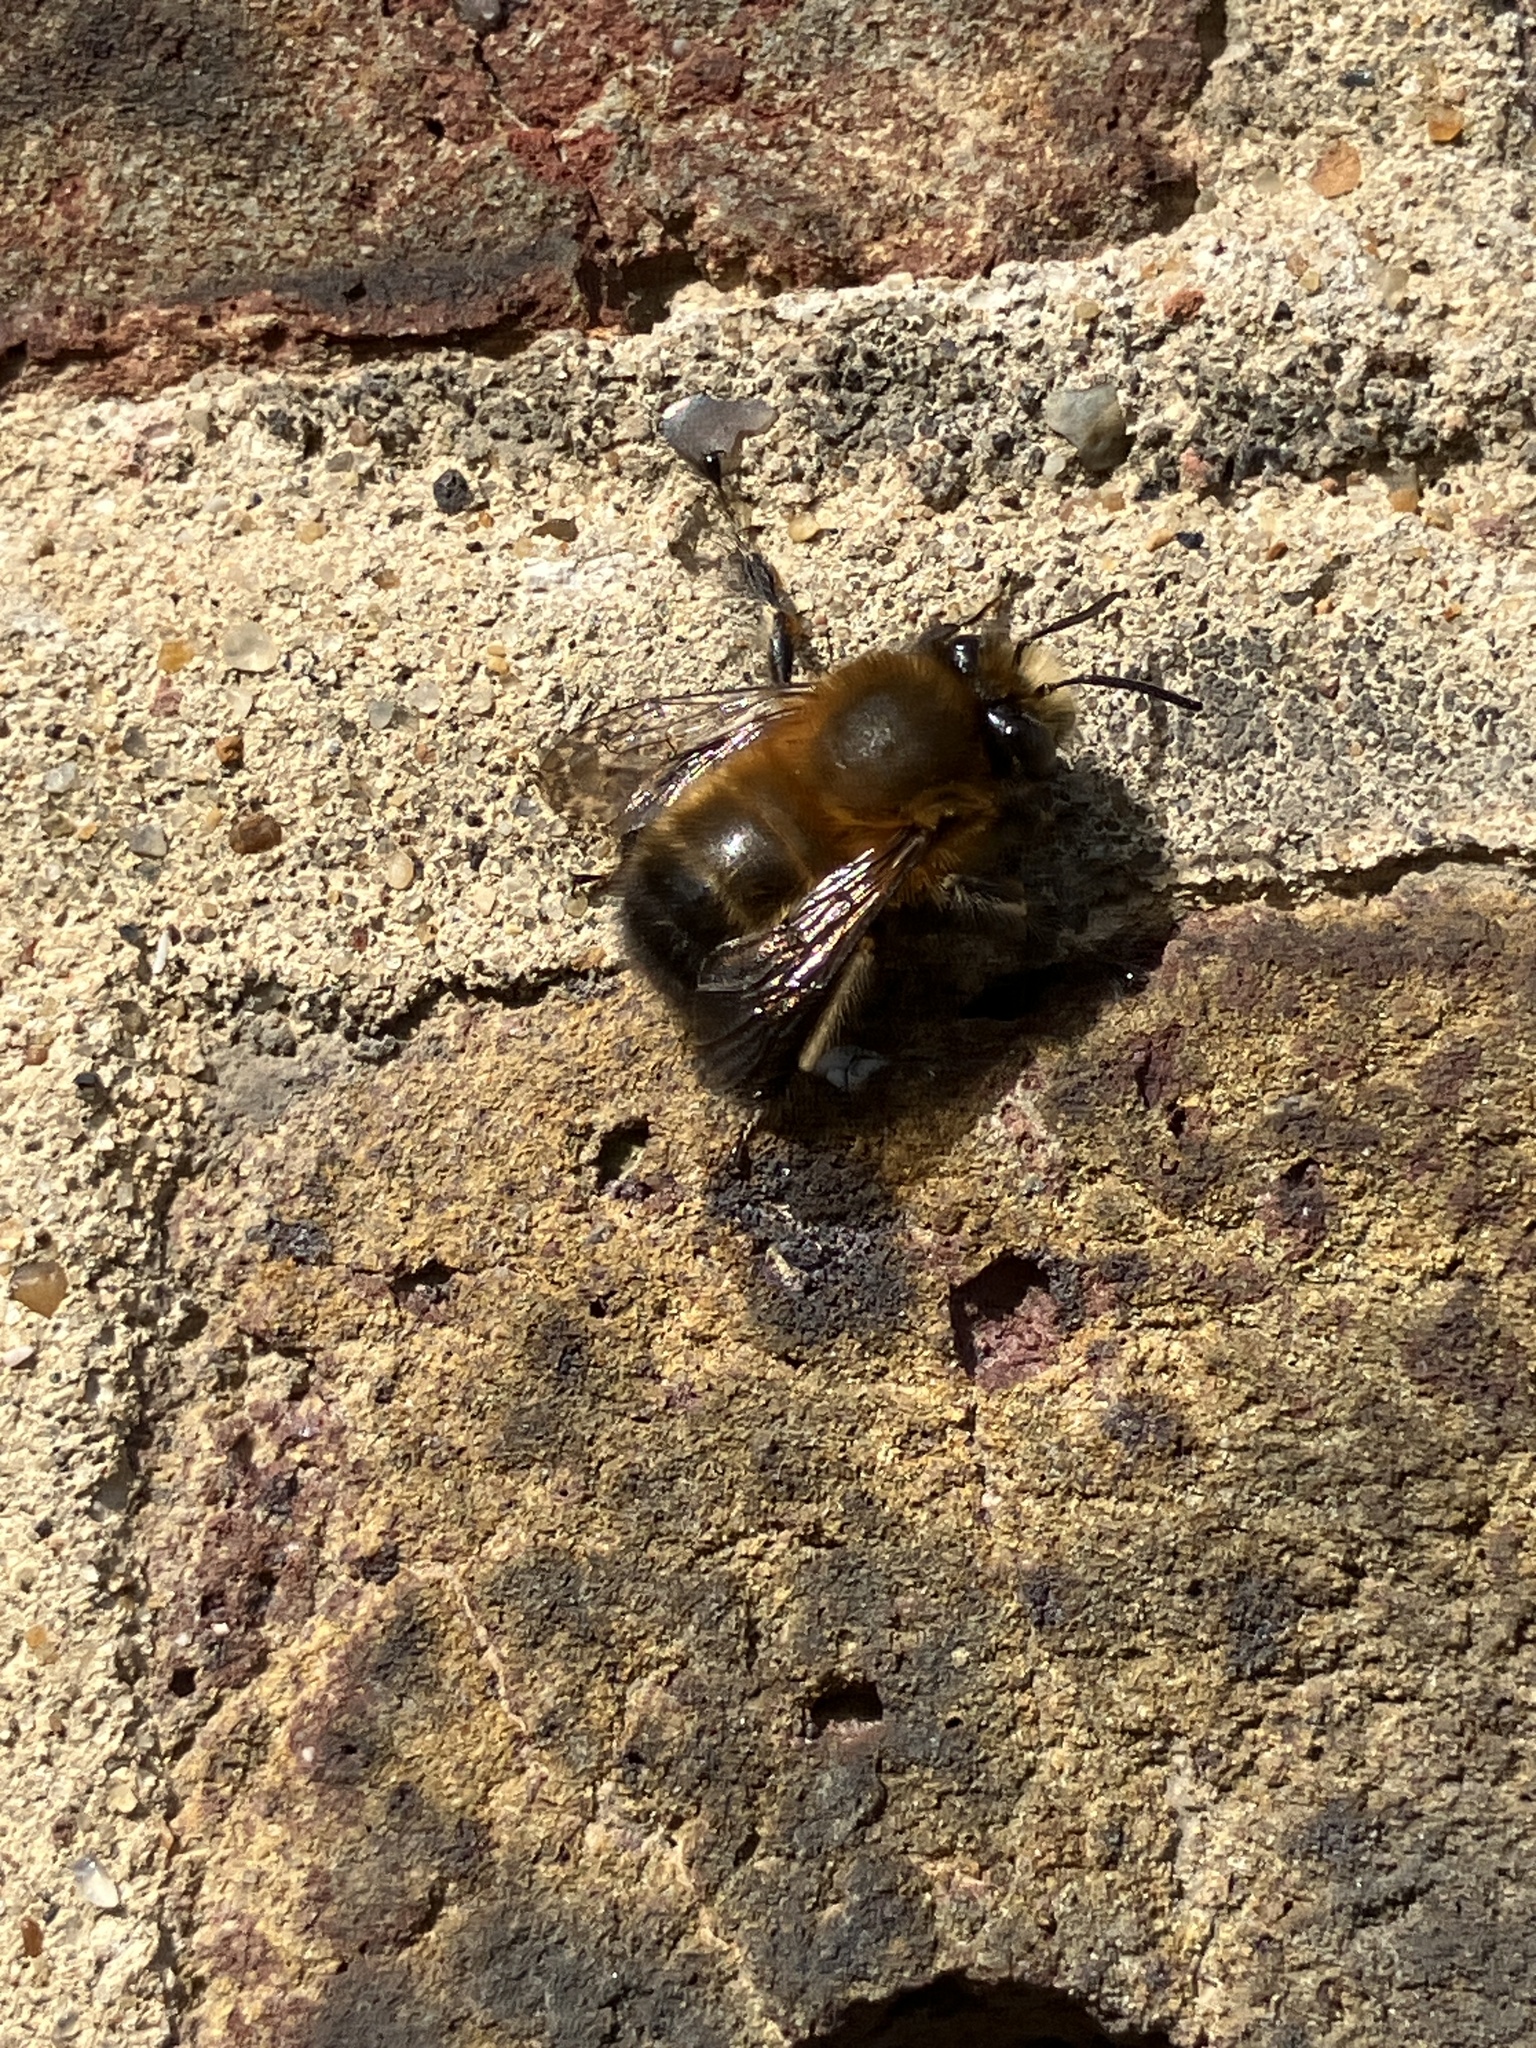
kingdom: Animalia
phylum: Arthropoda
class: Insecta
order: Hymenoptera
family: Apidae
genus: Anthophora
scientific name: Anthophora plumipes
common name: Hairy-footed flower bee
